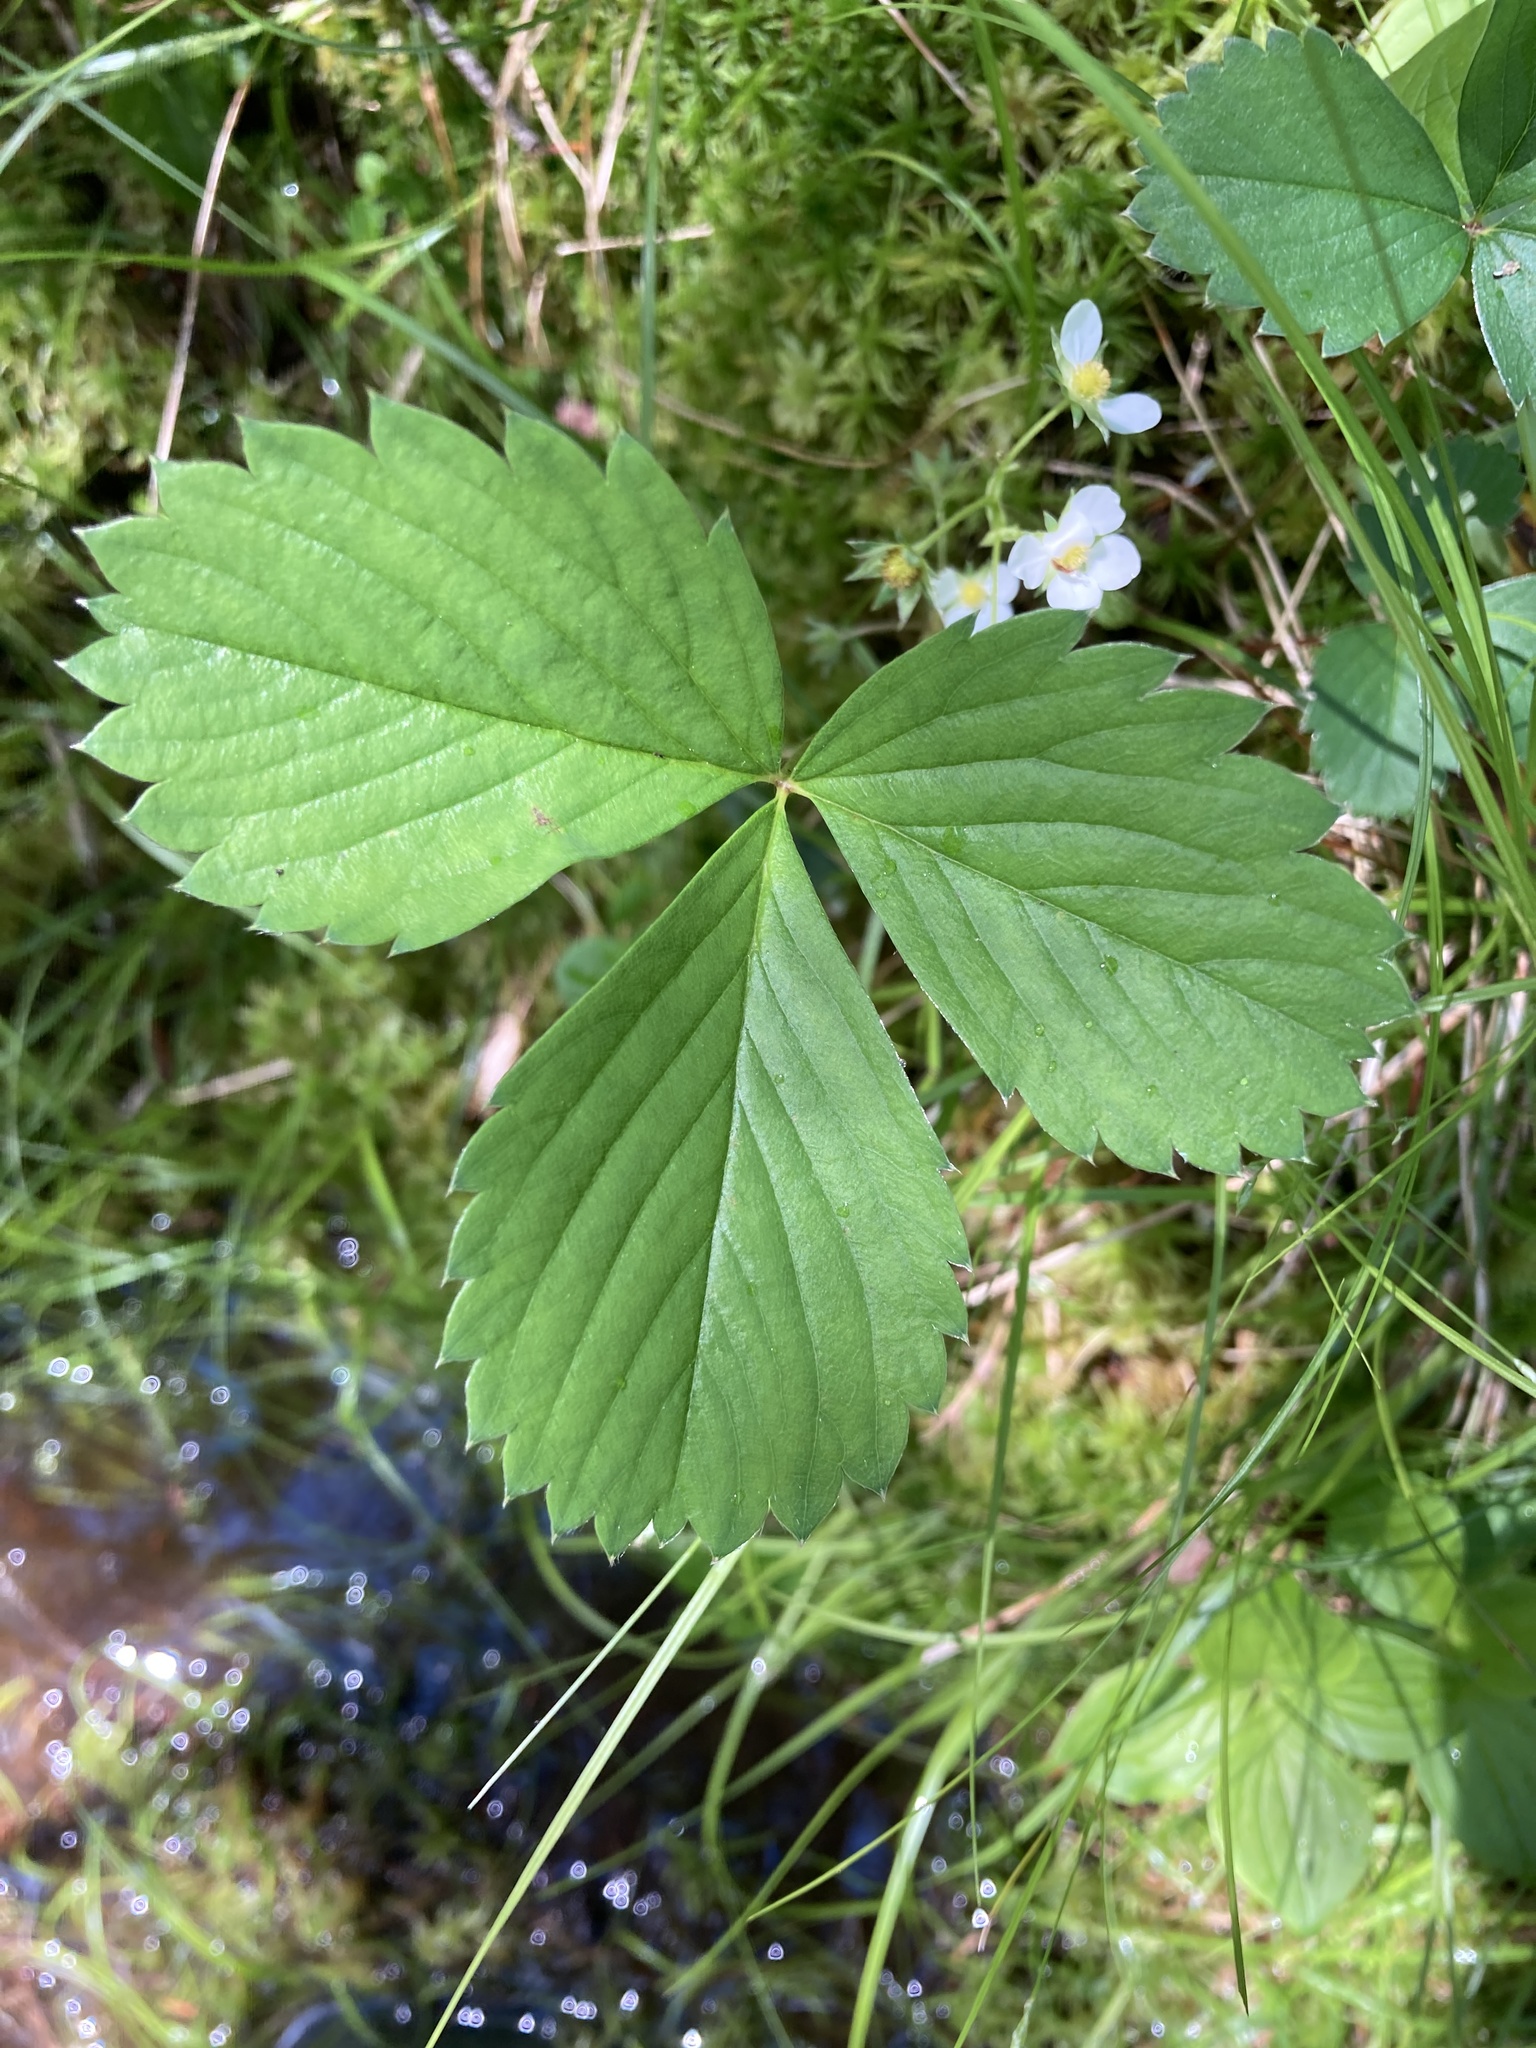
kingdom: Plantae
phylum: Tracheophyta
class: Magnoliopsida
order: Rosales
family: Rosaceae
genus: Fragaria
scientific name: Fragaria virginiana
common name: Thickleaved wild strawberry
